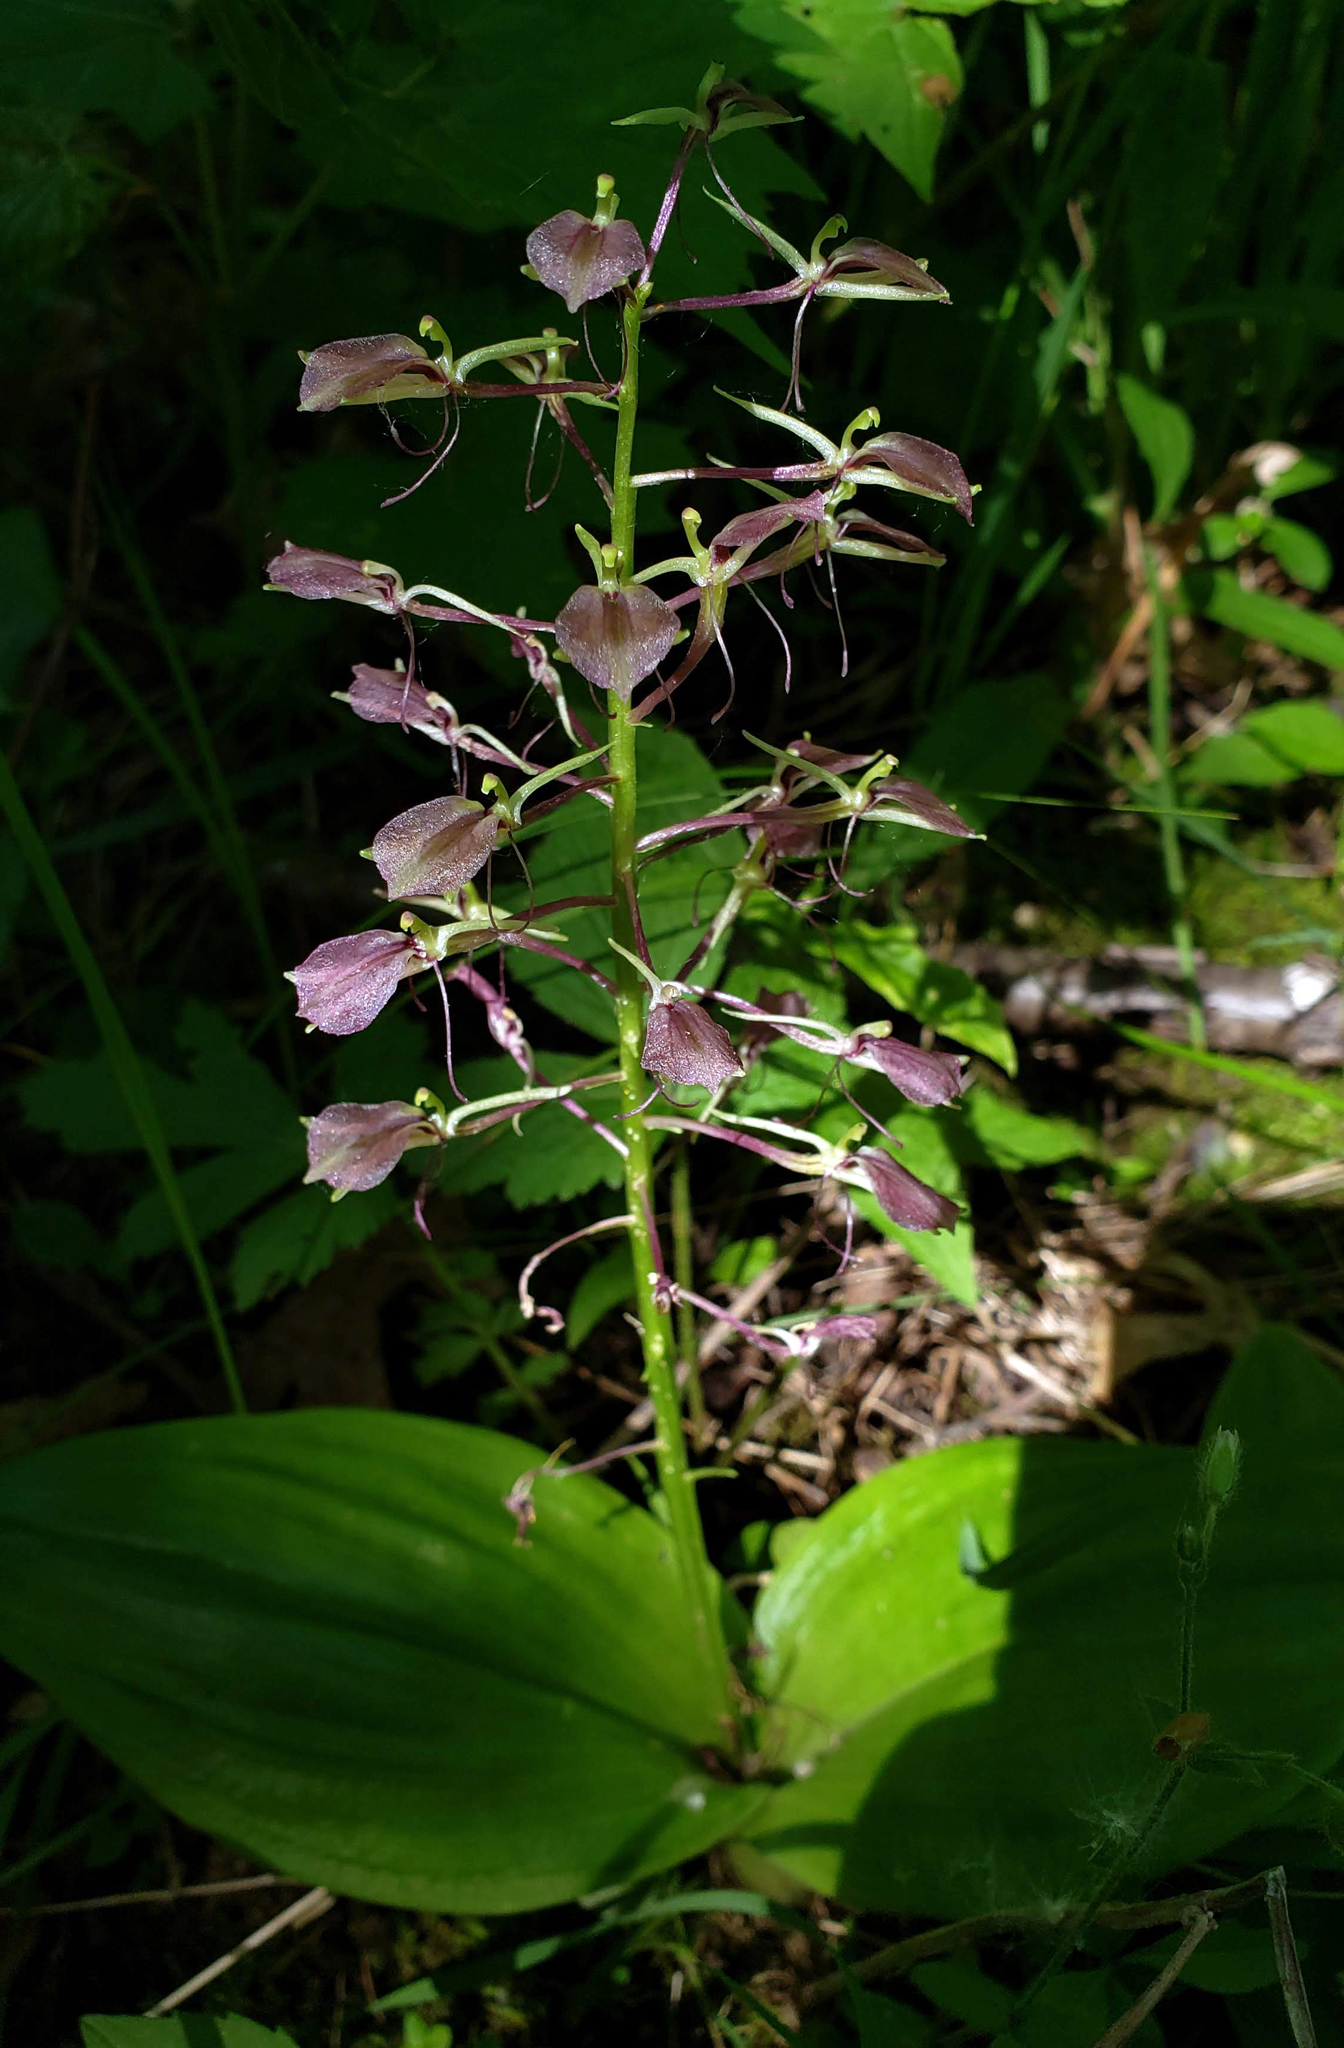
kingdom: Plantae
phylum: Tracheophyta
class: Liliopsida
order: Asparagales
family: Orchidaceae
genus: Liparis
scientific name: Liparis liliifolia
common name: Brown wide-lip orchid
